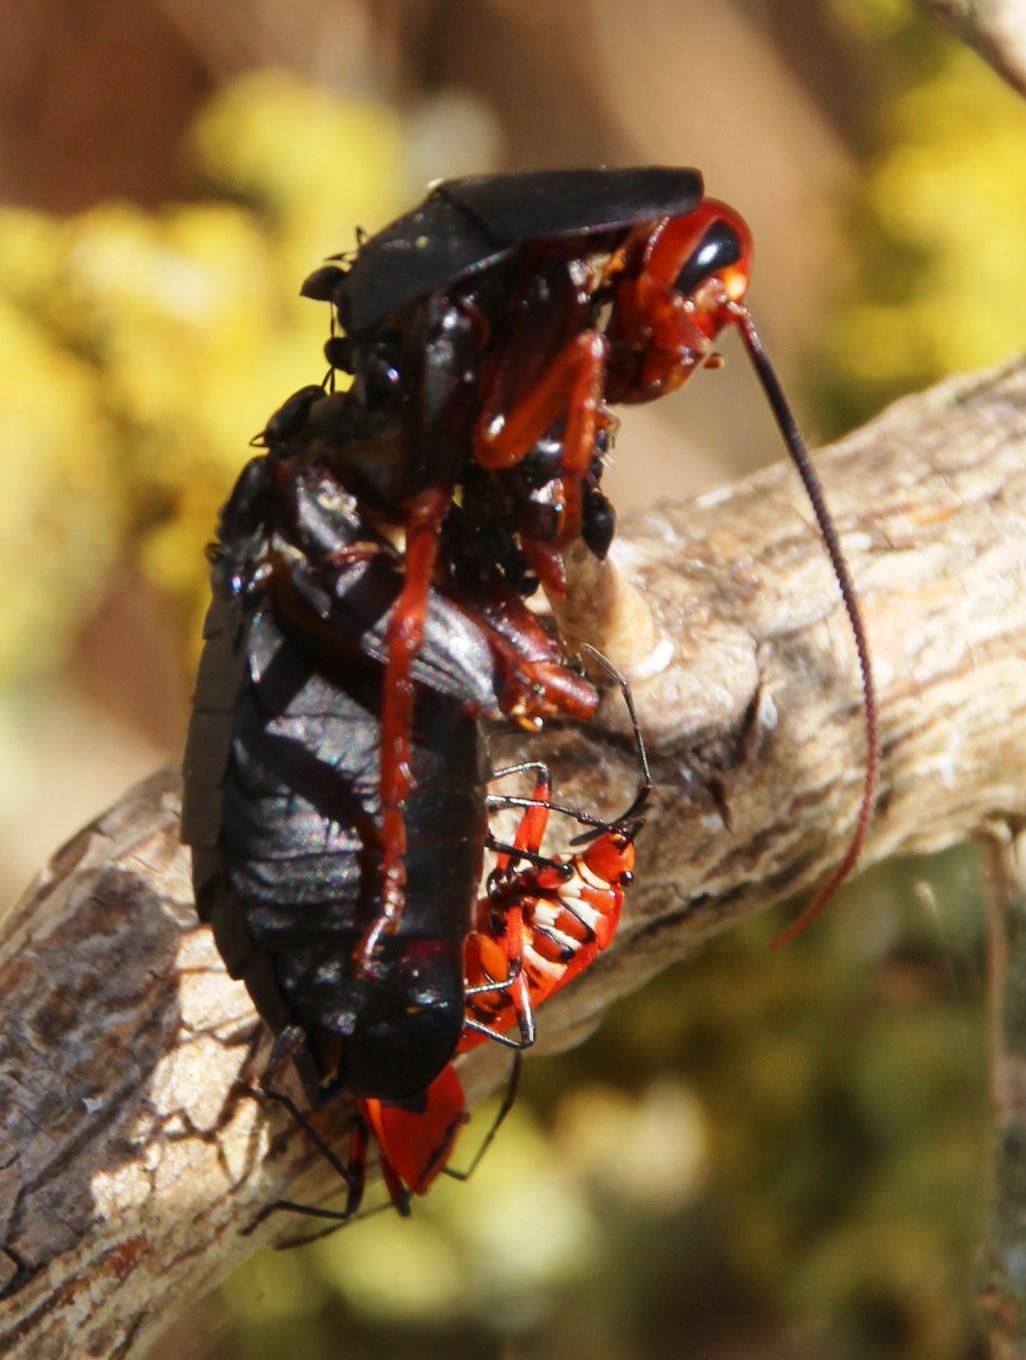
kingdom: Animalia
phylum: Arthropoda
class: Insecta
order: Hemiptera
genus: Cenaeus
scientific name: Cenaeus
